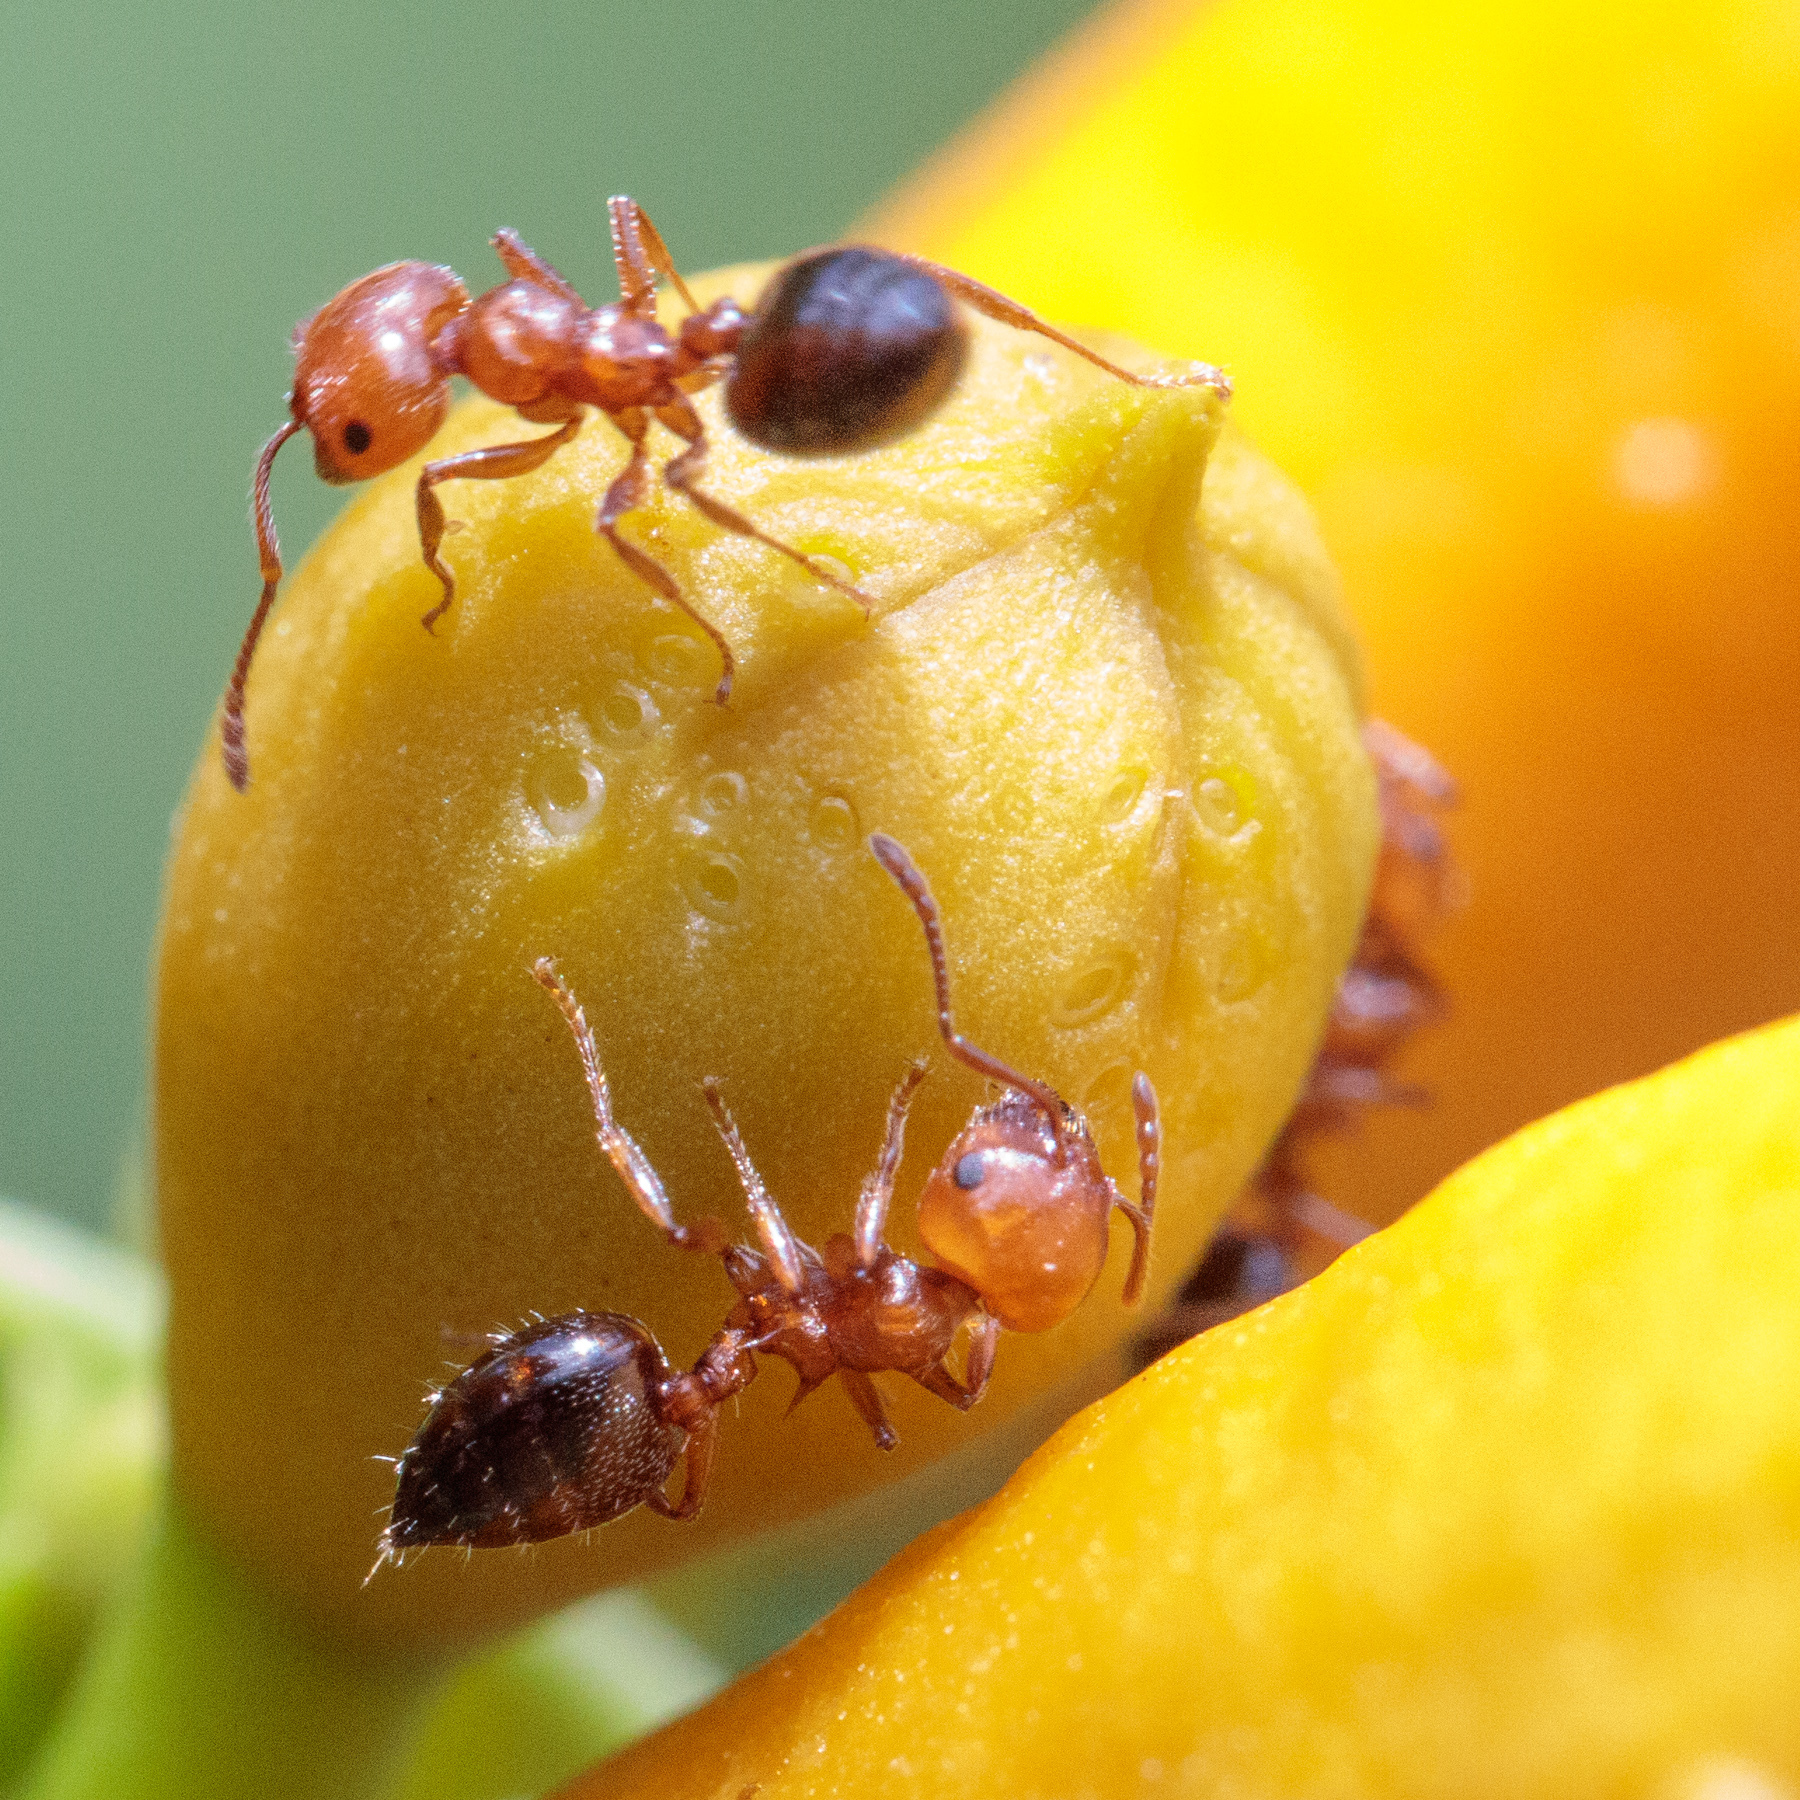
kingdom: Animalia
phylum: Arthropoda
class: Insecta
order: Hymenoptera
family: Formicidae
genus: Crematogaster
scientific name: Crematogaster laeviuscula
